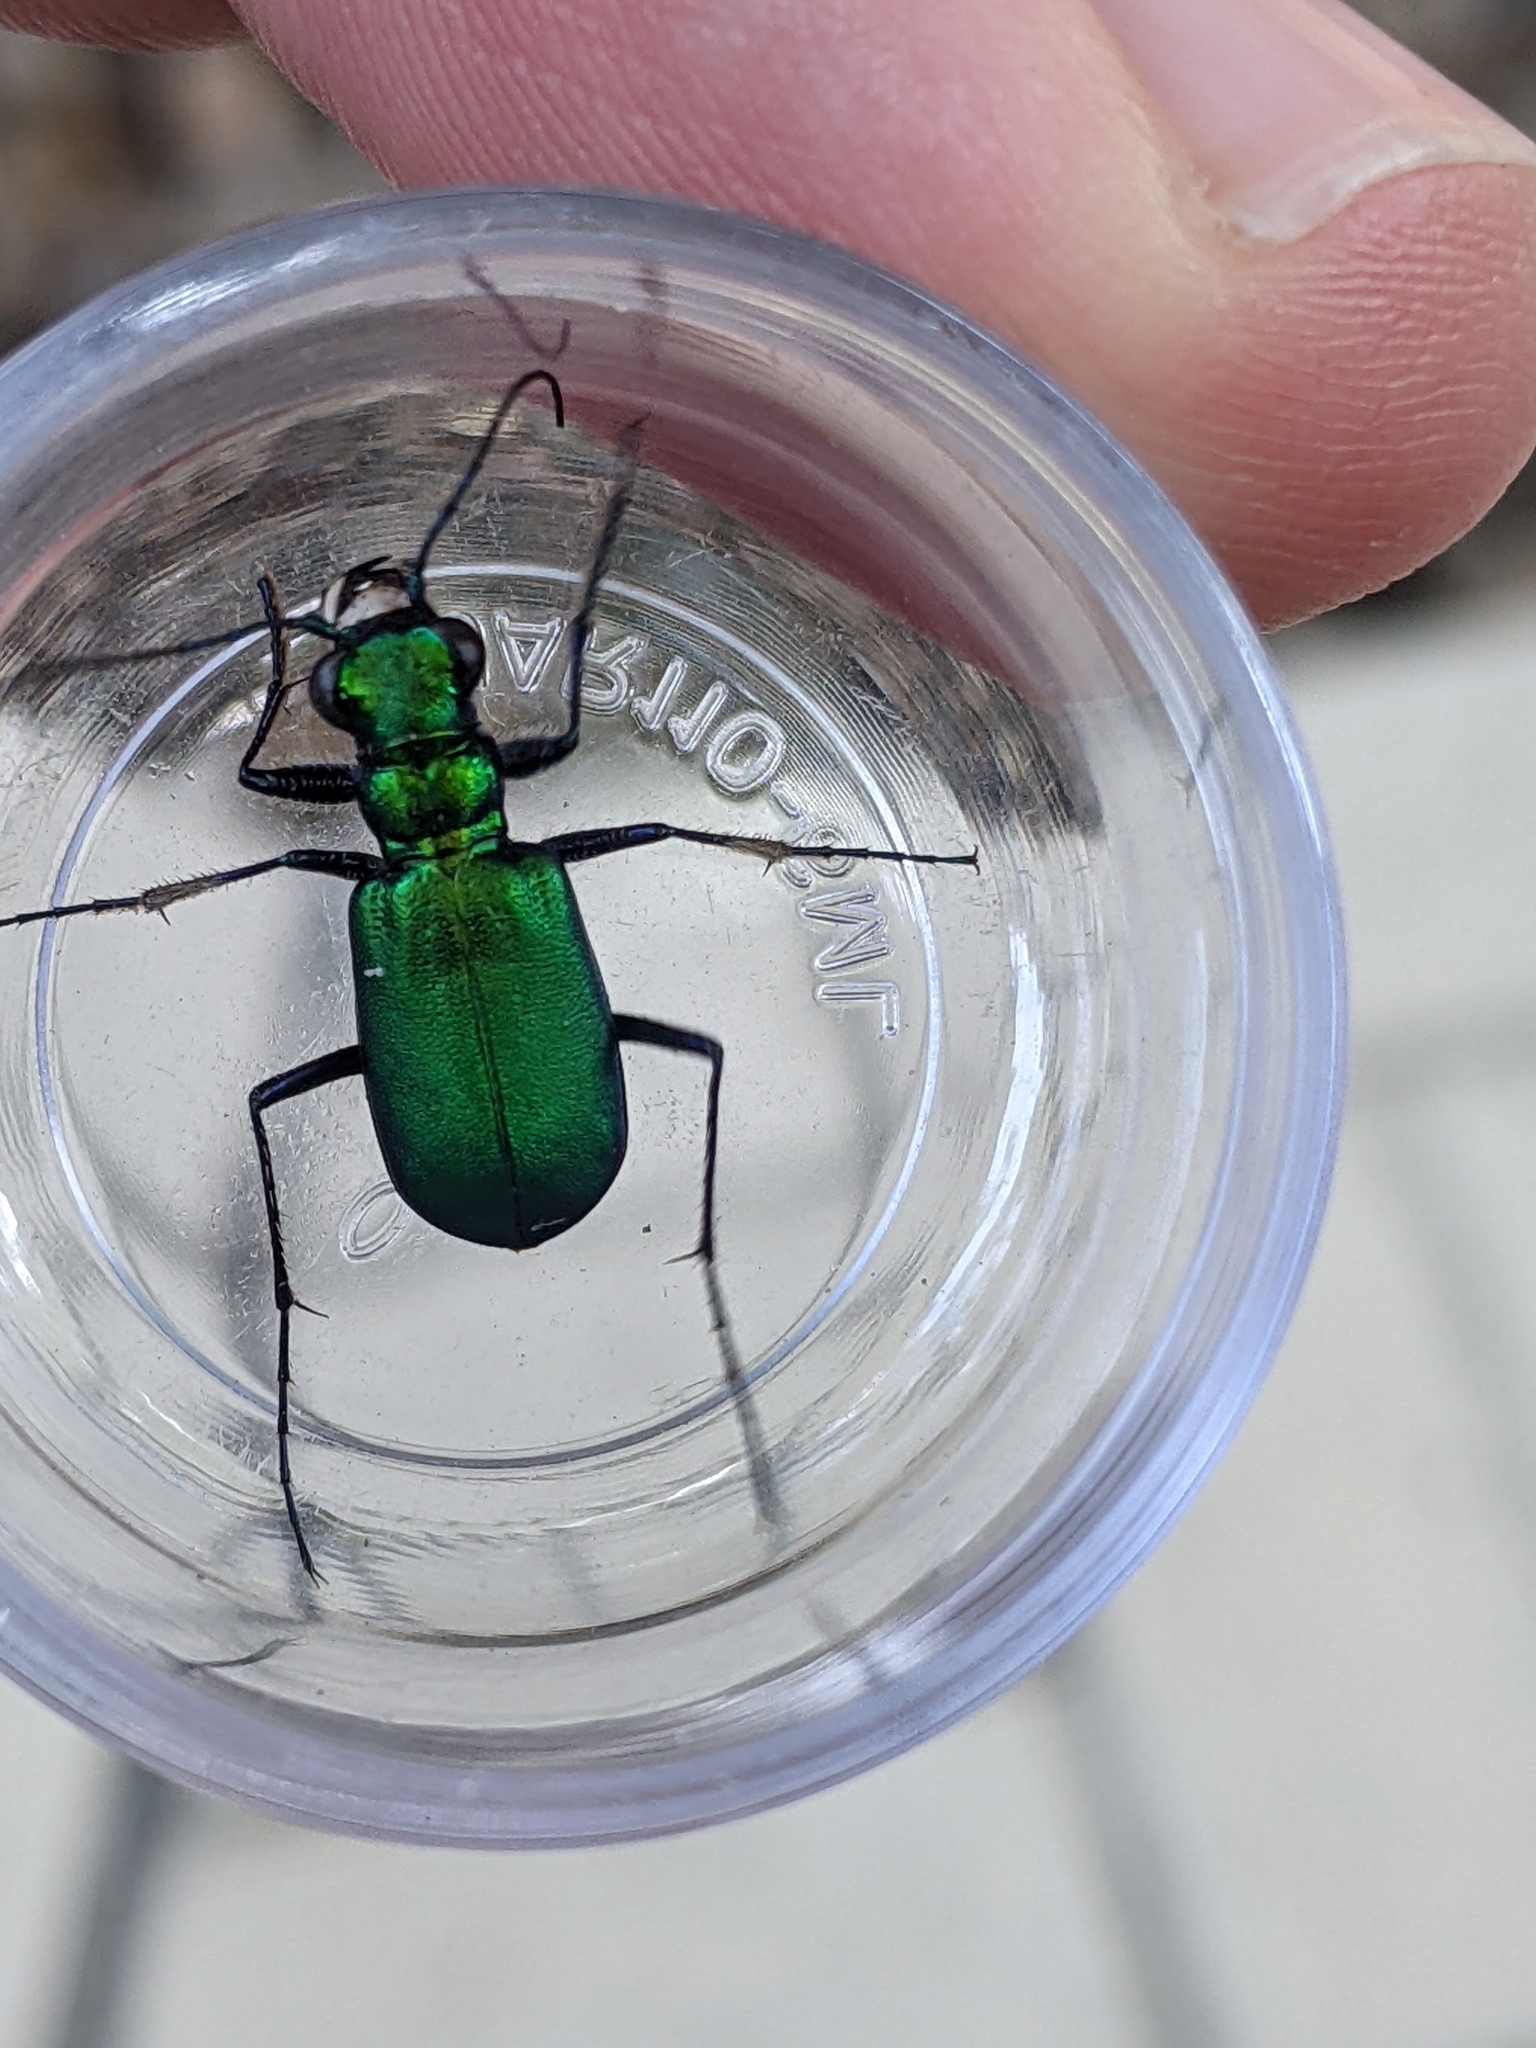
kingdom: Animalia
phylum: Arthropoda
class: Insecta
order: Coleoptera
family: Carabidae
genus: Cicindela
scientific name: Cicindela sexguttata
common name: Six-spotted tiger beetle
